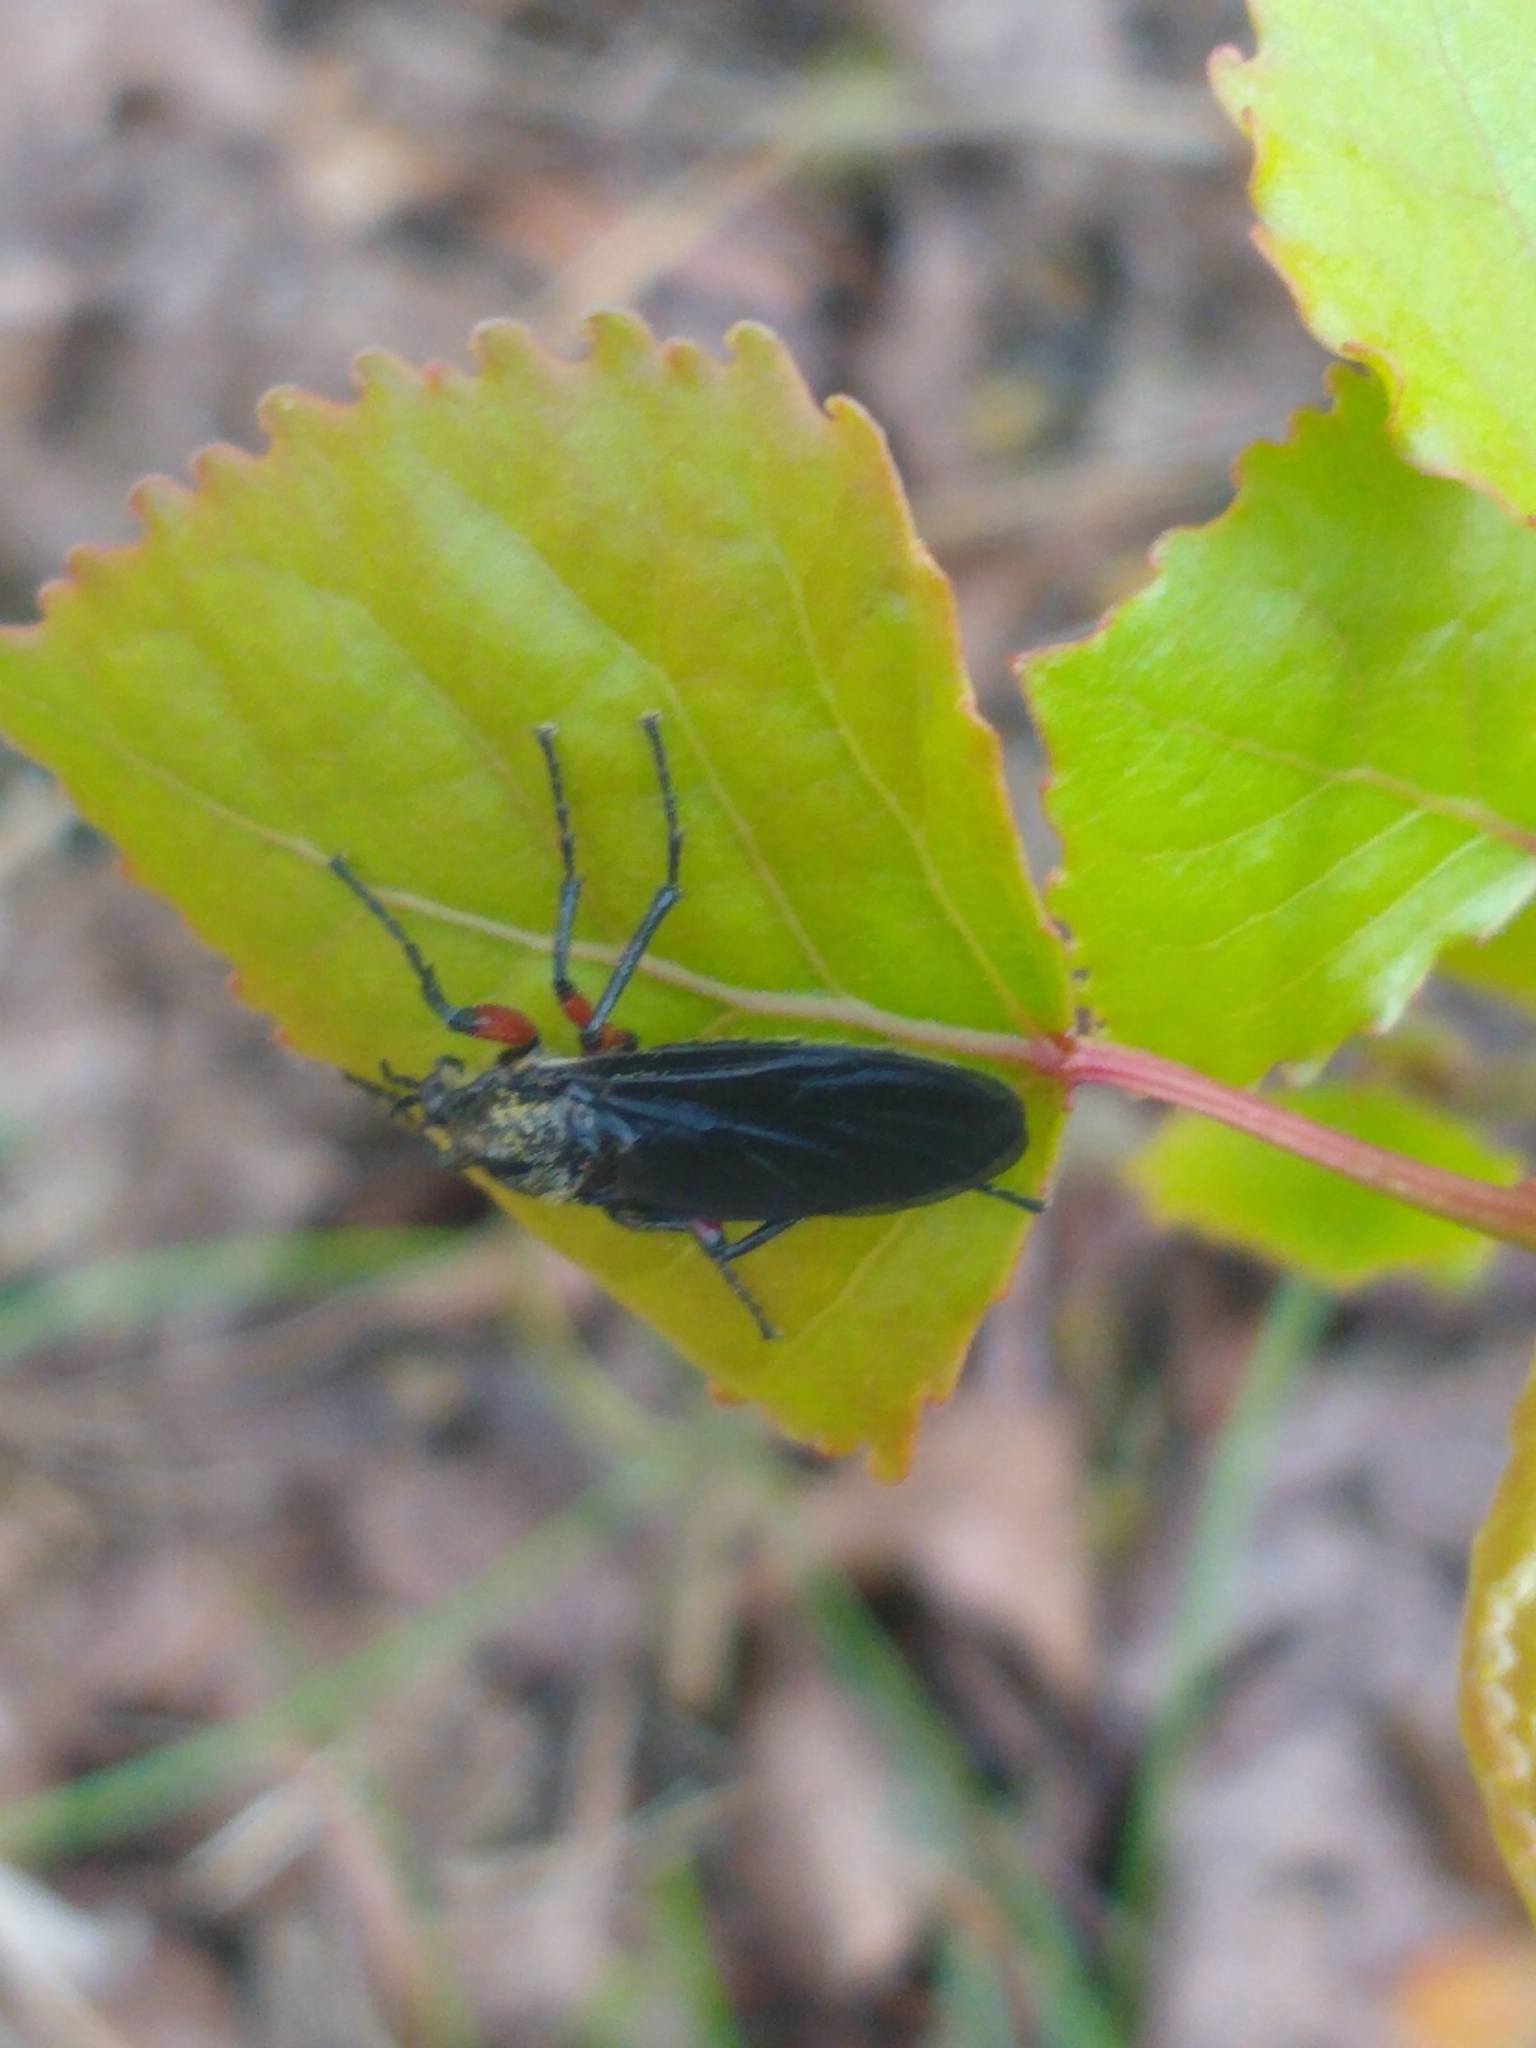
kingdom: Animalia
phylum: Arthropoda
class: Insecta
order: Diptera
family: Bibionidae
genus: Bibio
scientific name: Bibio femoratus
